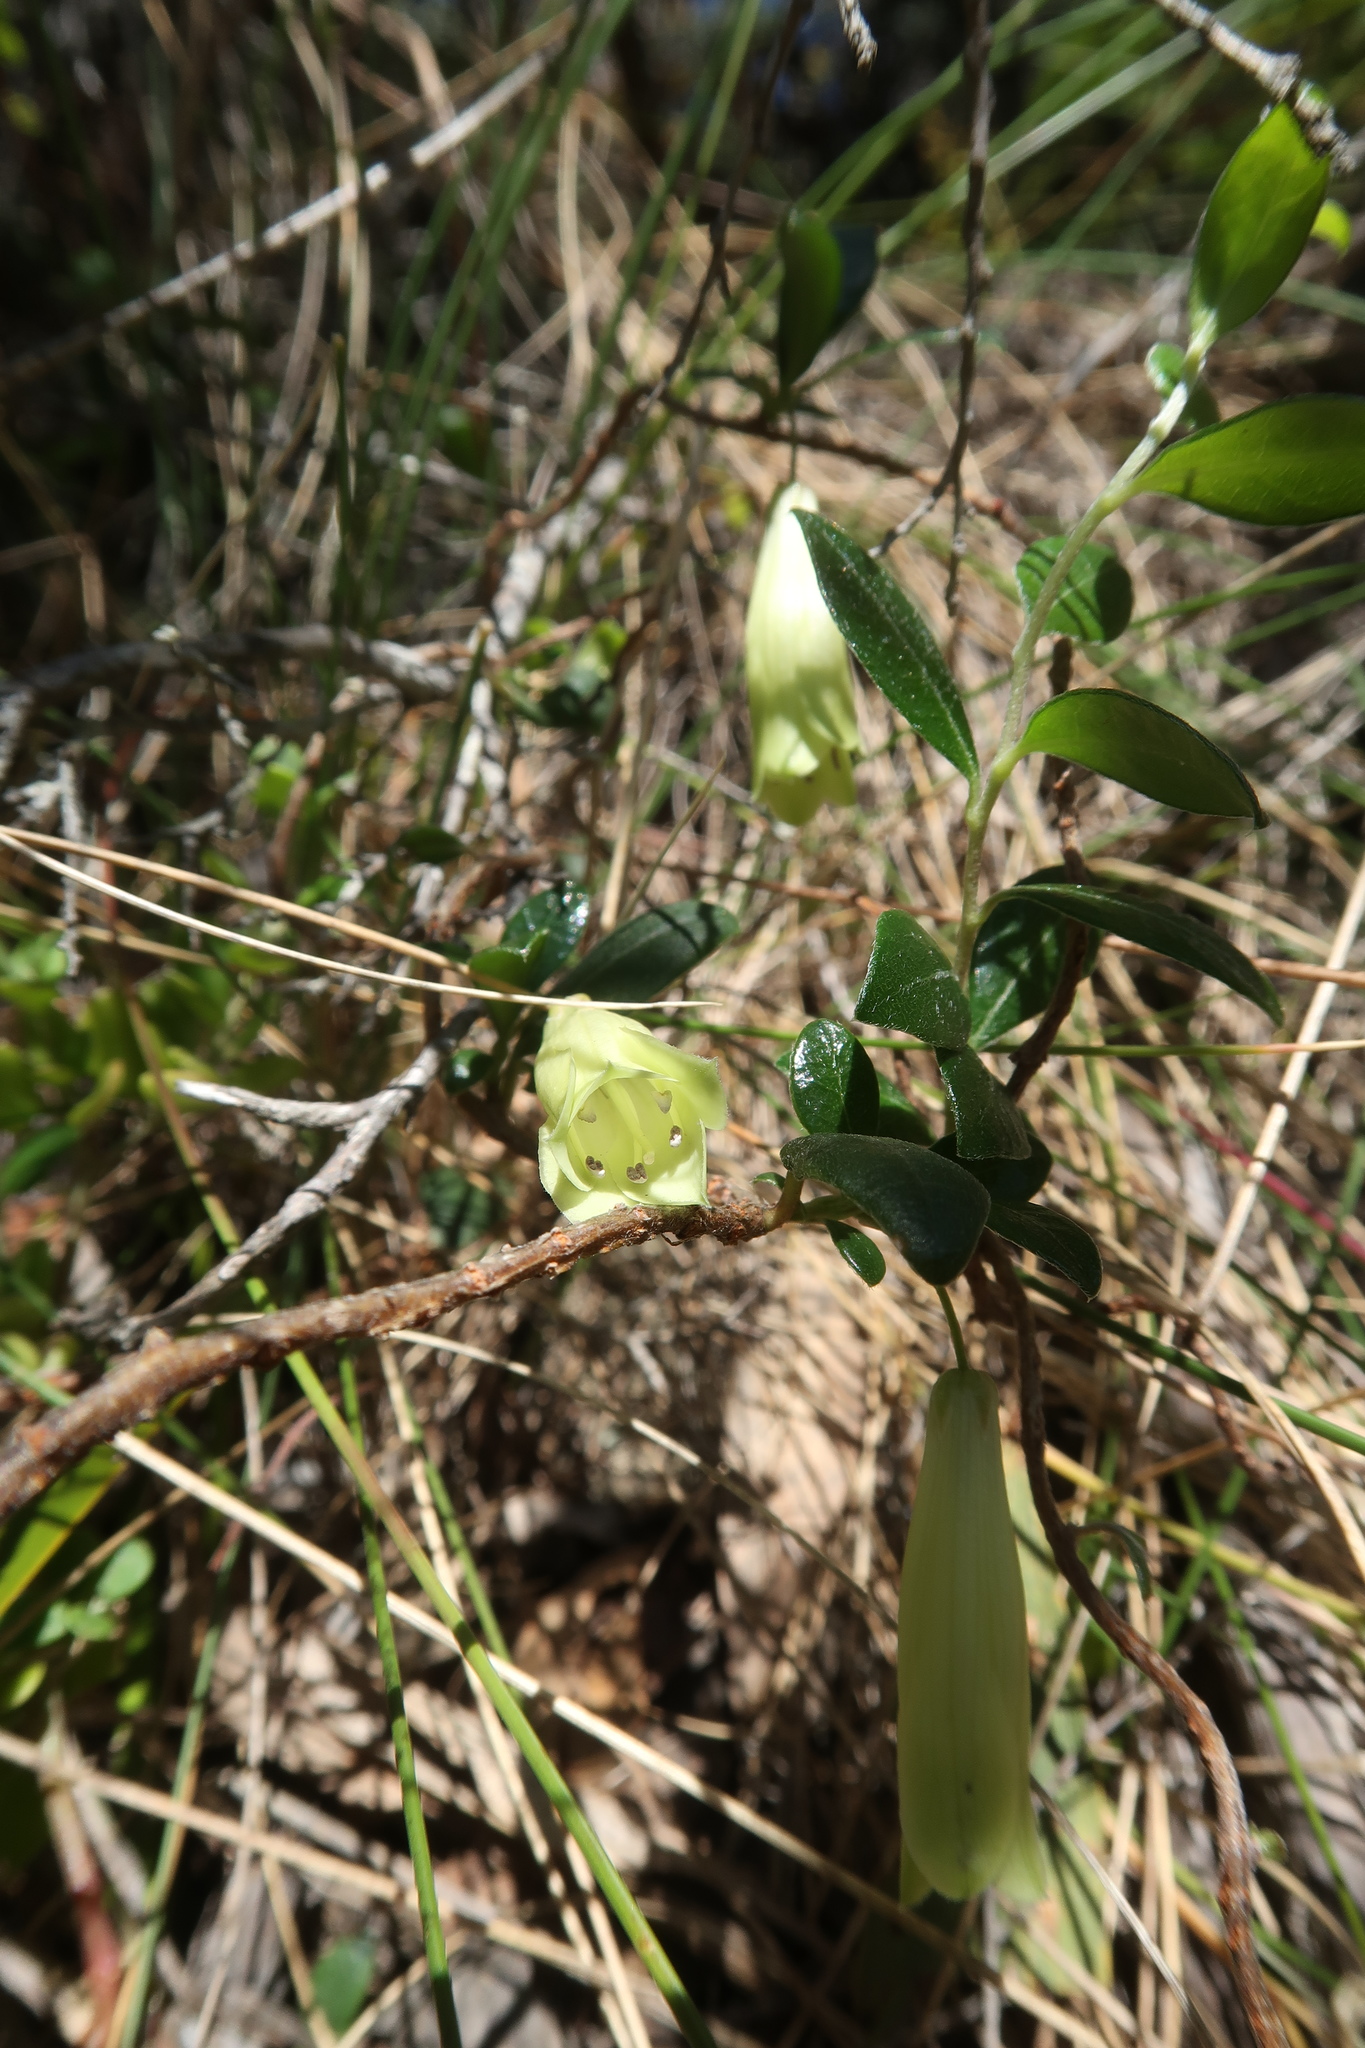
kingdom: Plantae
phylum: Tracheophyta
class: Magnoliopsida
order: Apiales
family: Pittosporaceae
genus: Billardiera
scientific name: Billardiera ovalis
